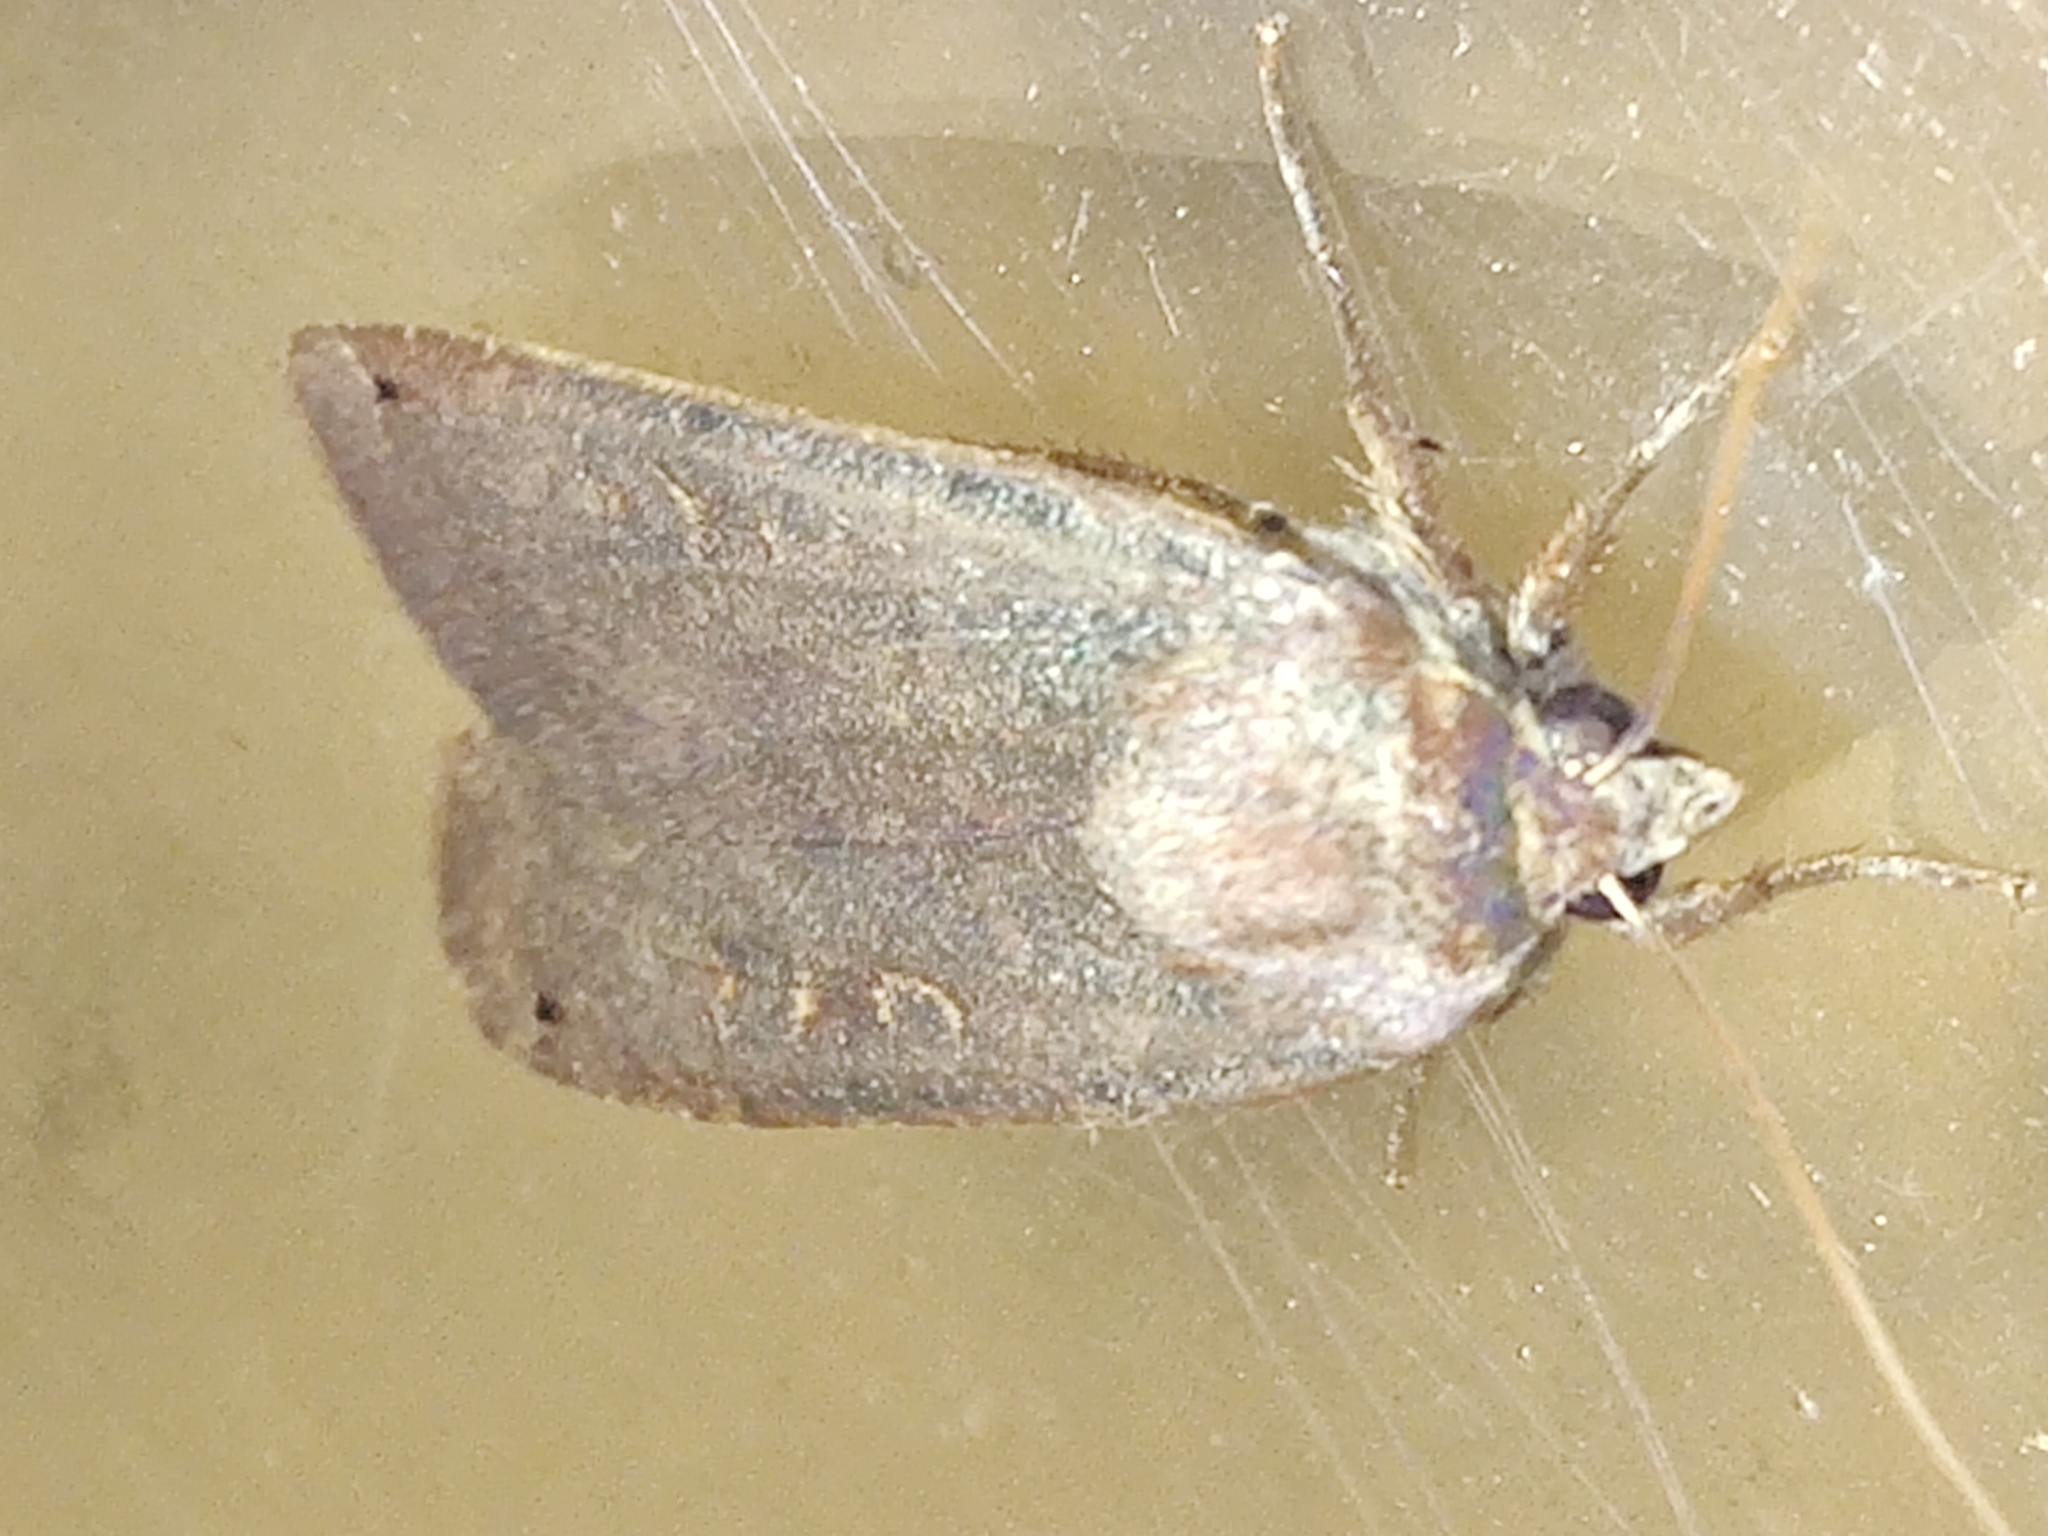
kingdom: Animalia
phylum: Arthropoda
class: Insecta
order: Lepidoptera
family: Noctuidae
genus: Noctua
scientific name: Noctua pronuba
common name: Large yellow underwing
